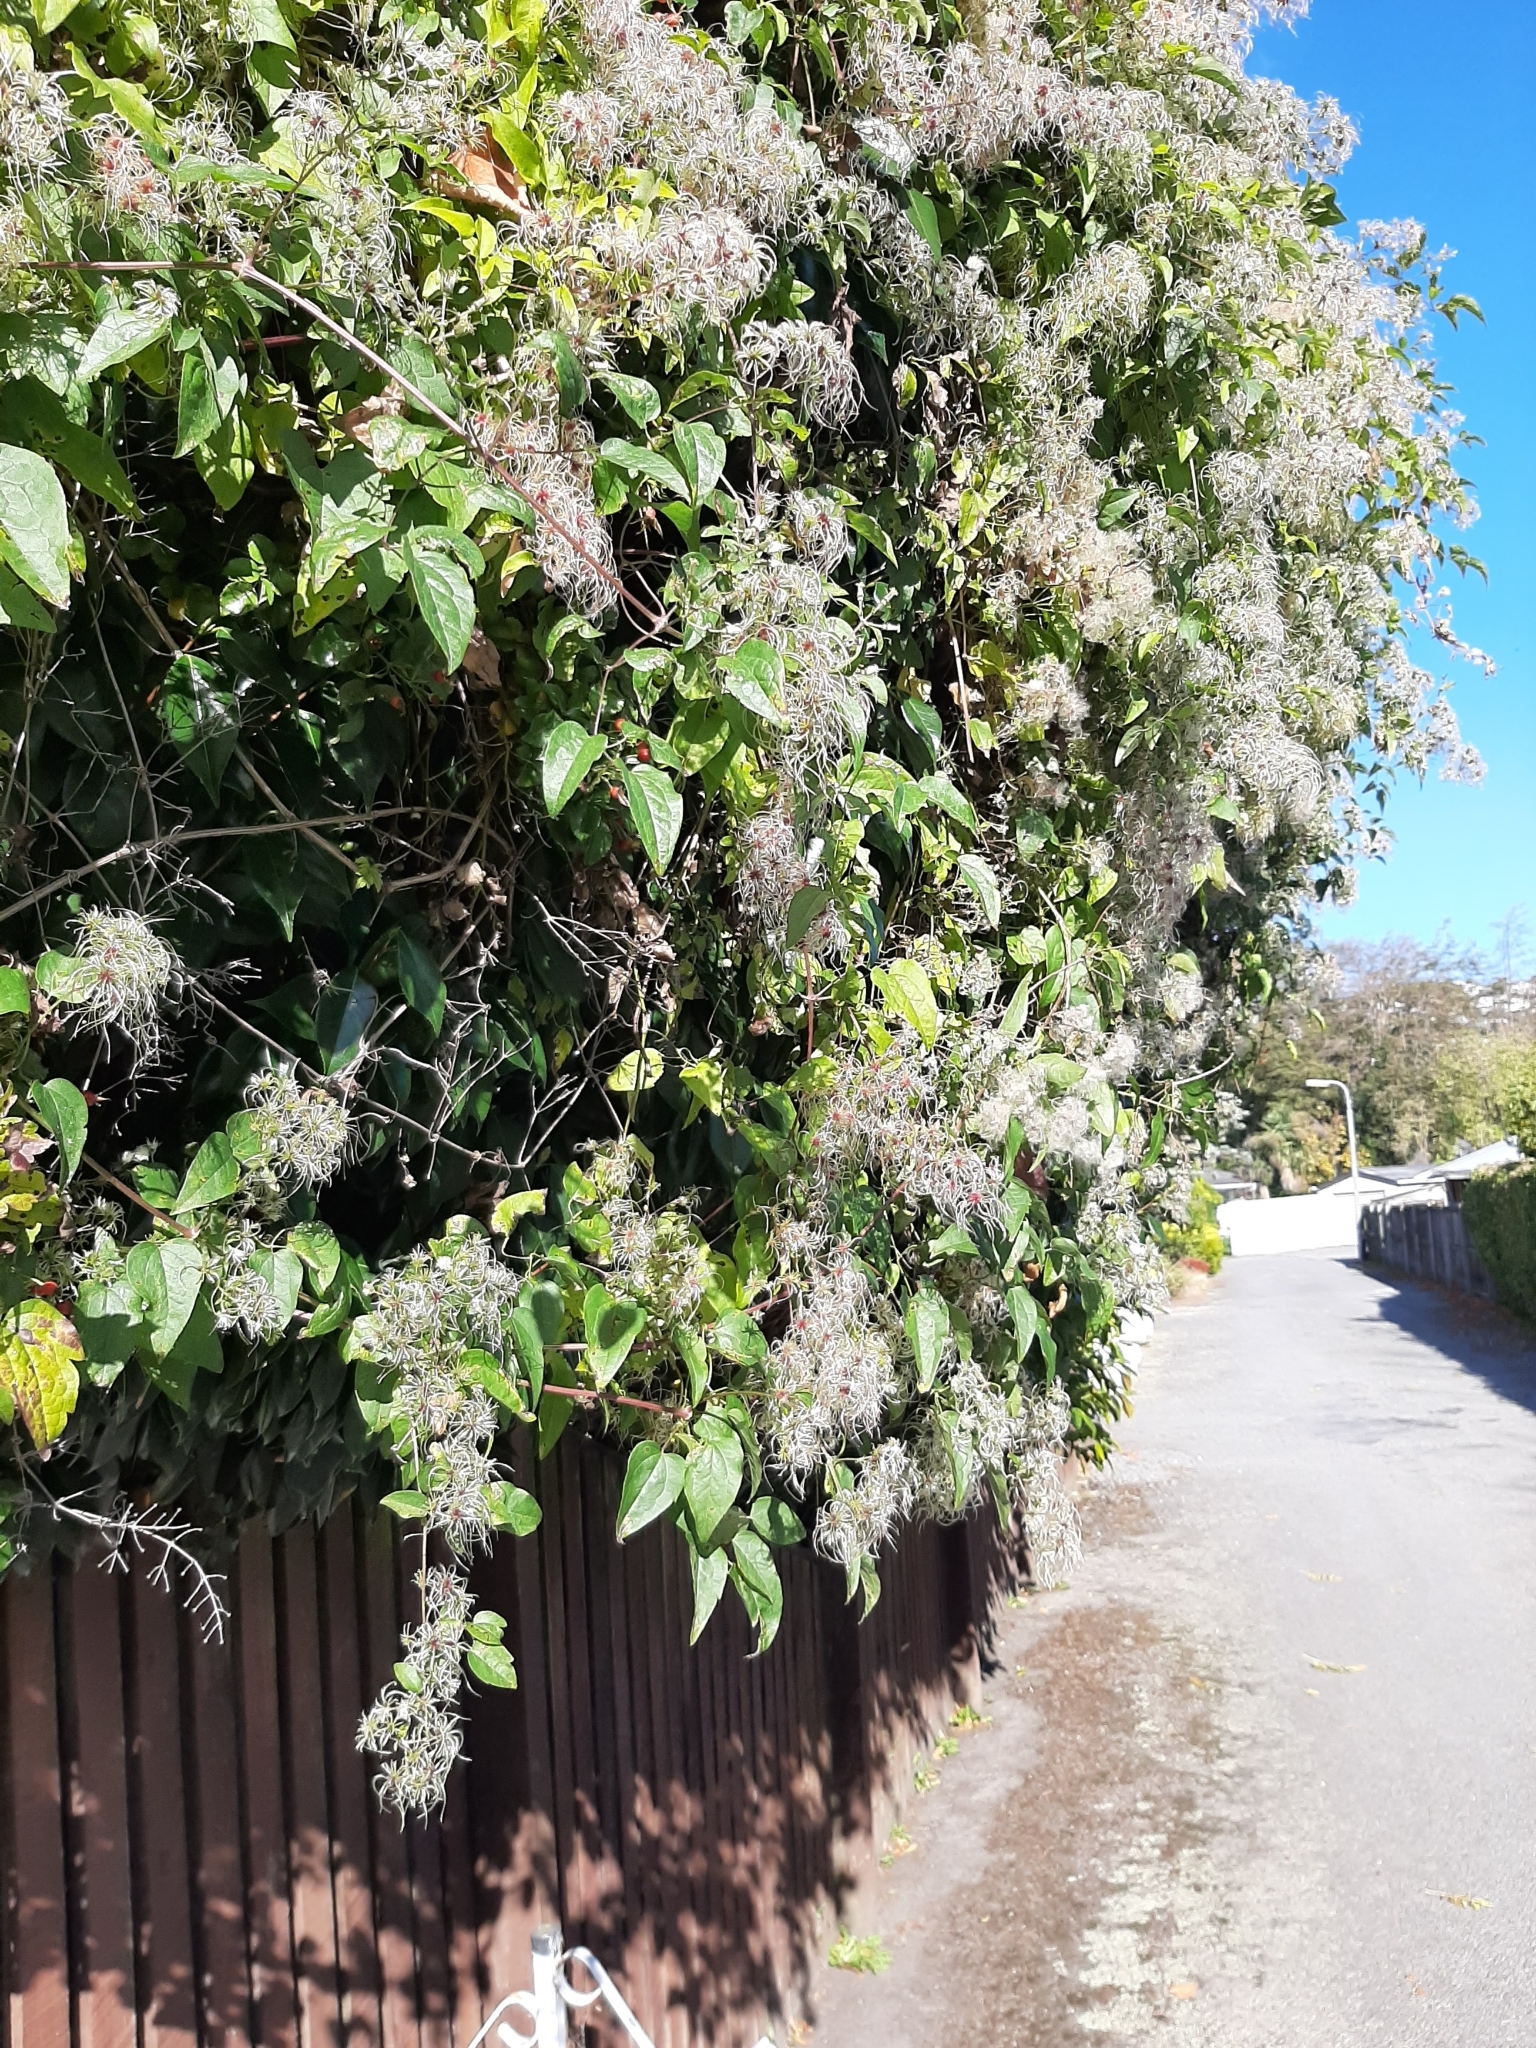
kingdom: Plantae
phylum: Tracheophyta
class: Magnoliopsida
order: Ranunculales
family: Ranunculaceae
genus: Clematis
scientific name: Clematis vitalba
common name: Evergreen clematis
